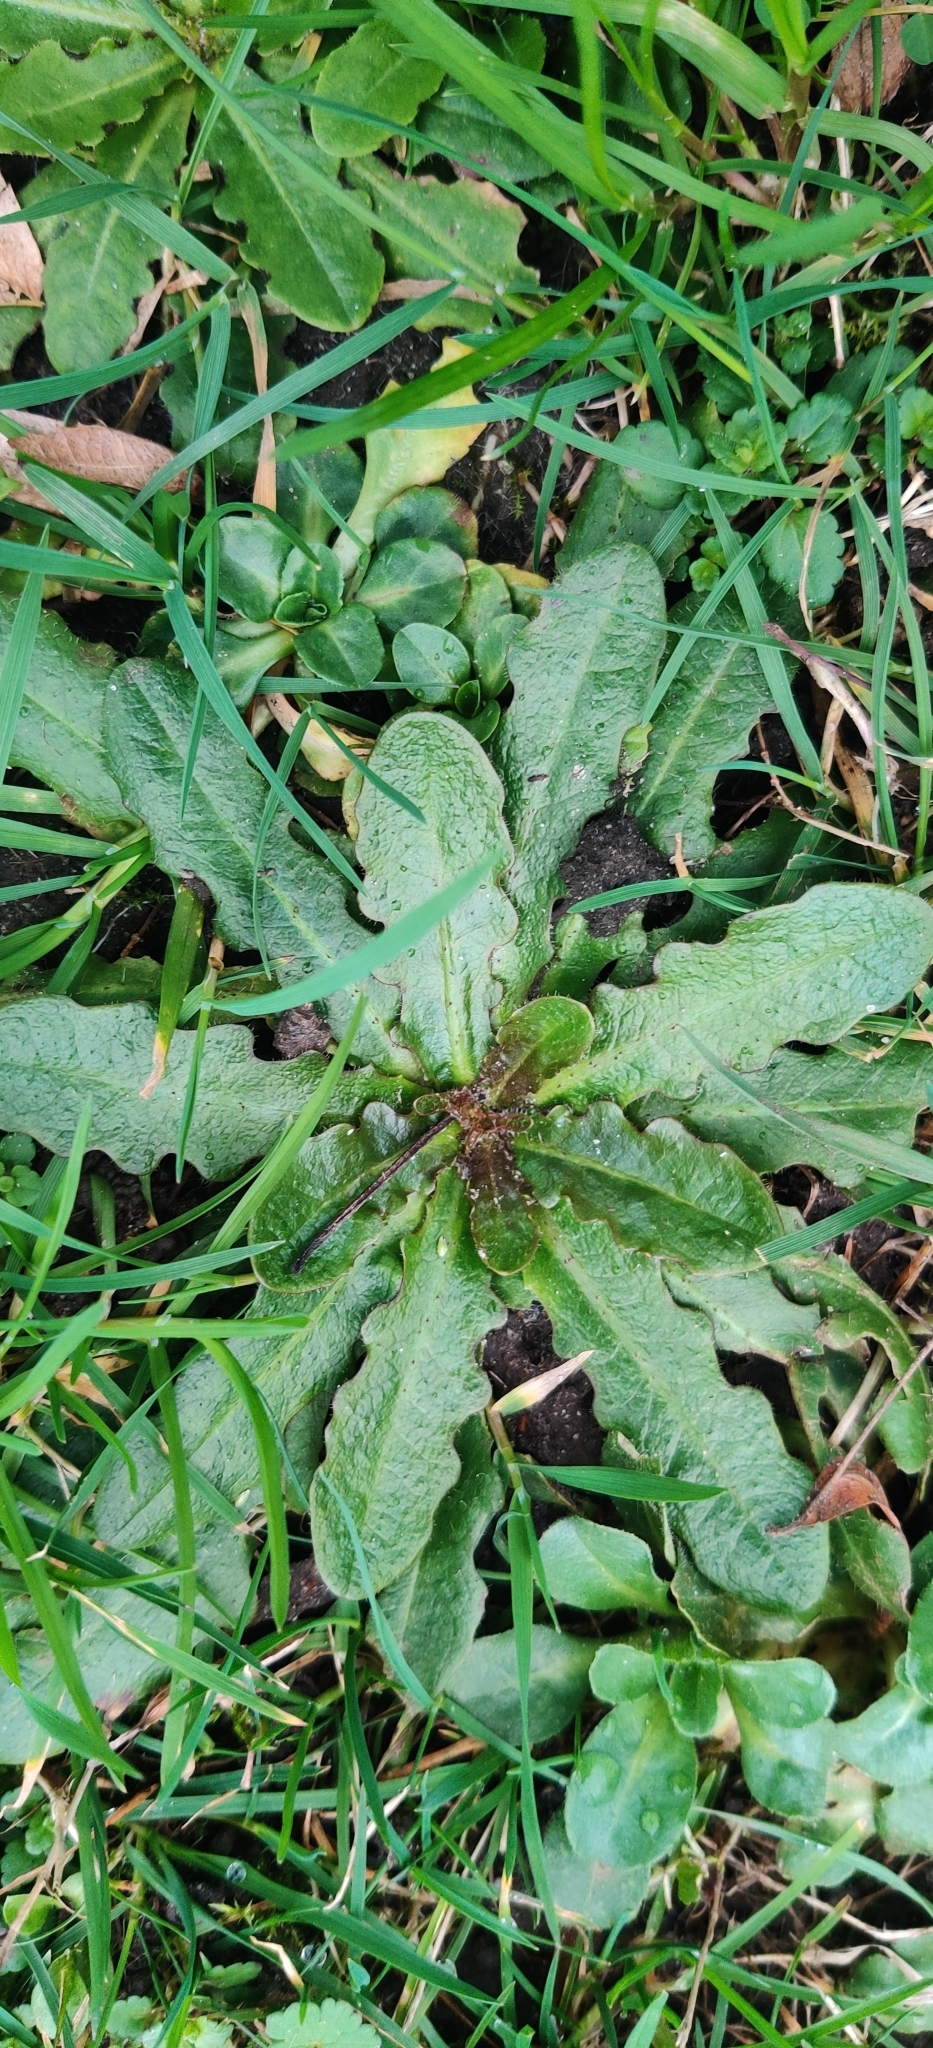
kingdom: Plantae
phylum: Tracheophyta
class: Magnoliopsida
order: Asterales
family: Asteraceae
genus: Hypochaeris
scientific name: Hypochaeris radicata
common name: Flatweed
